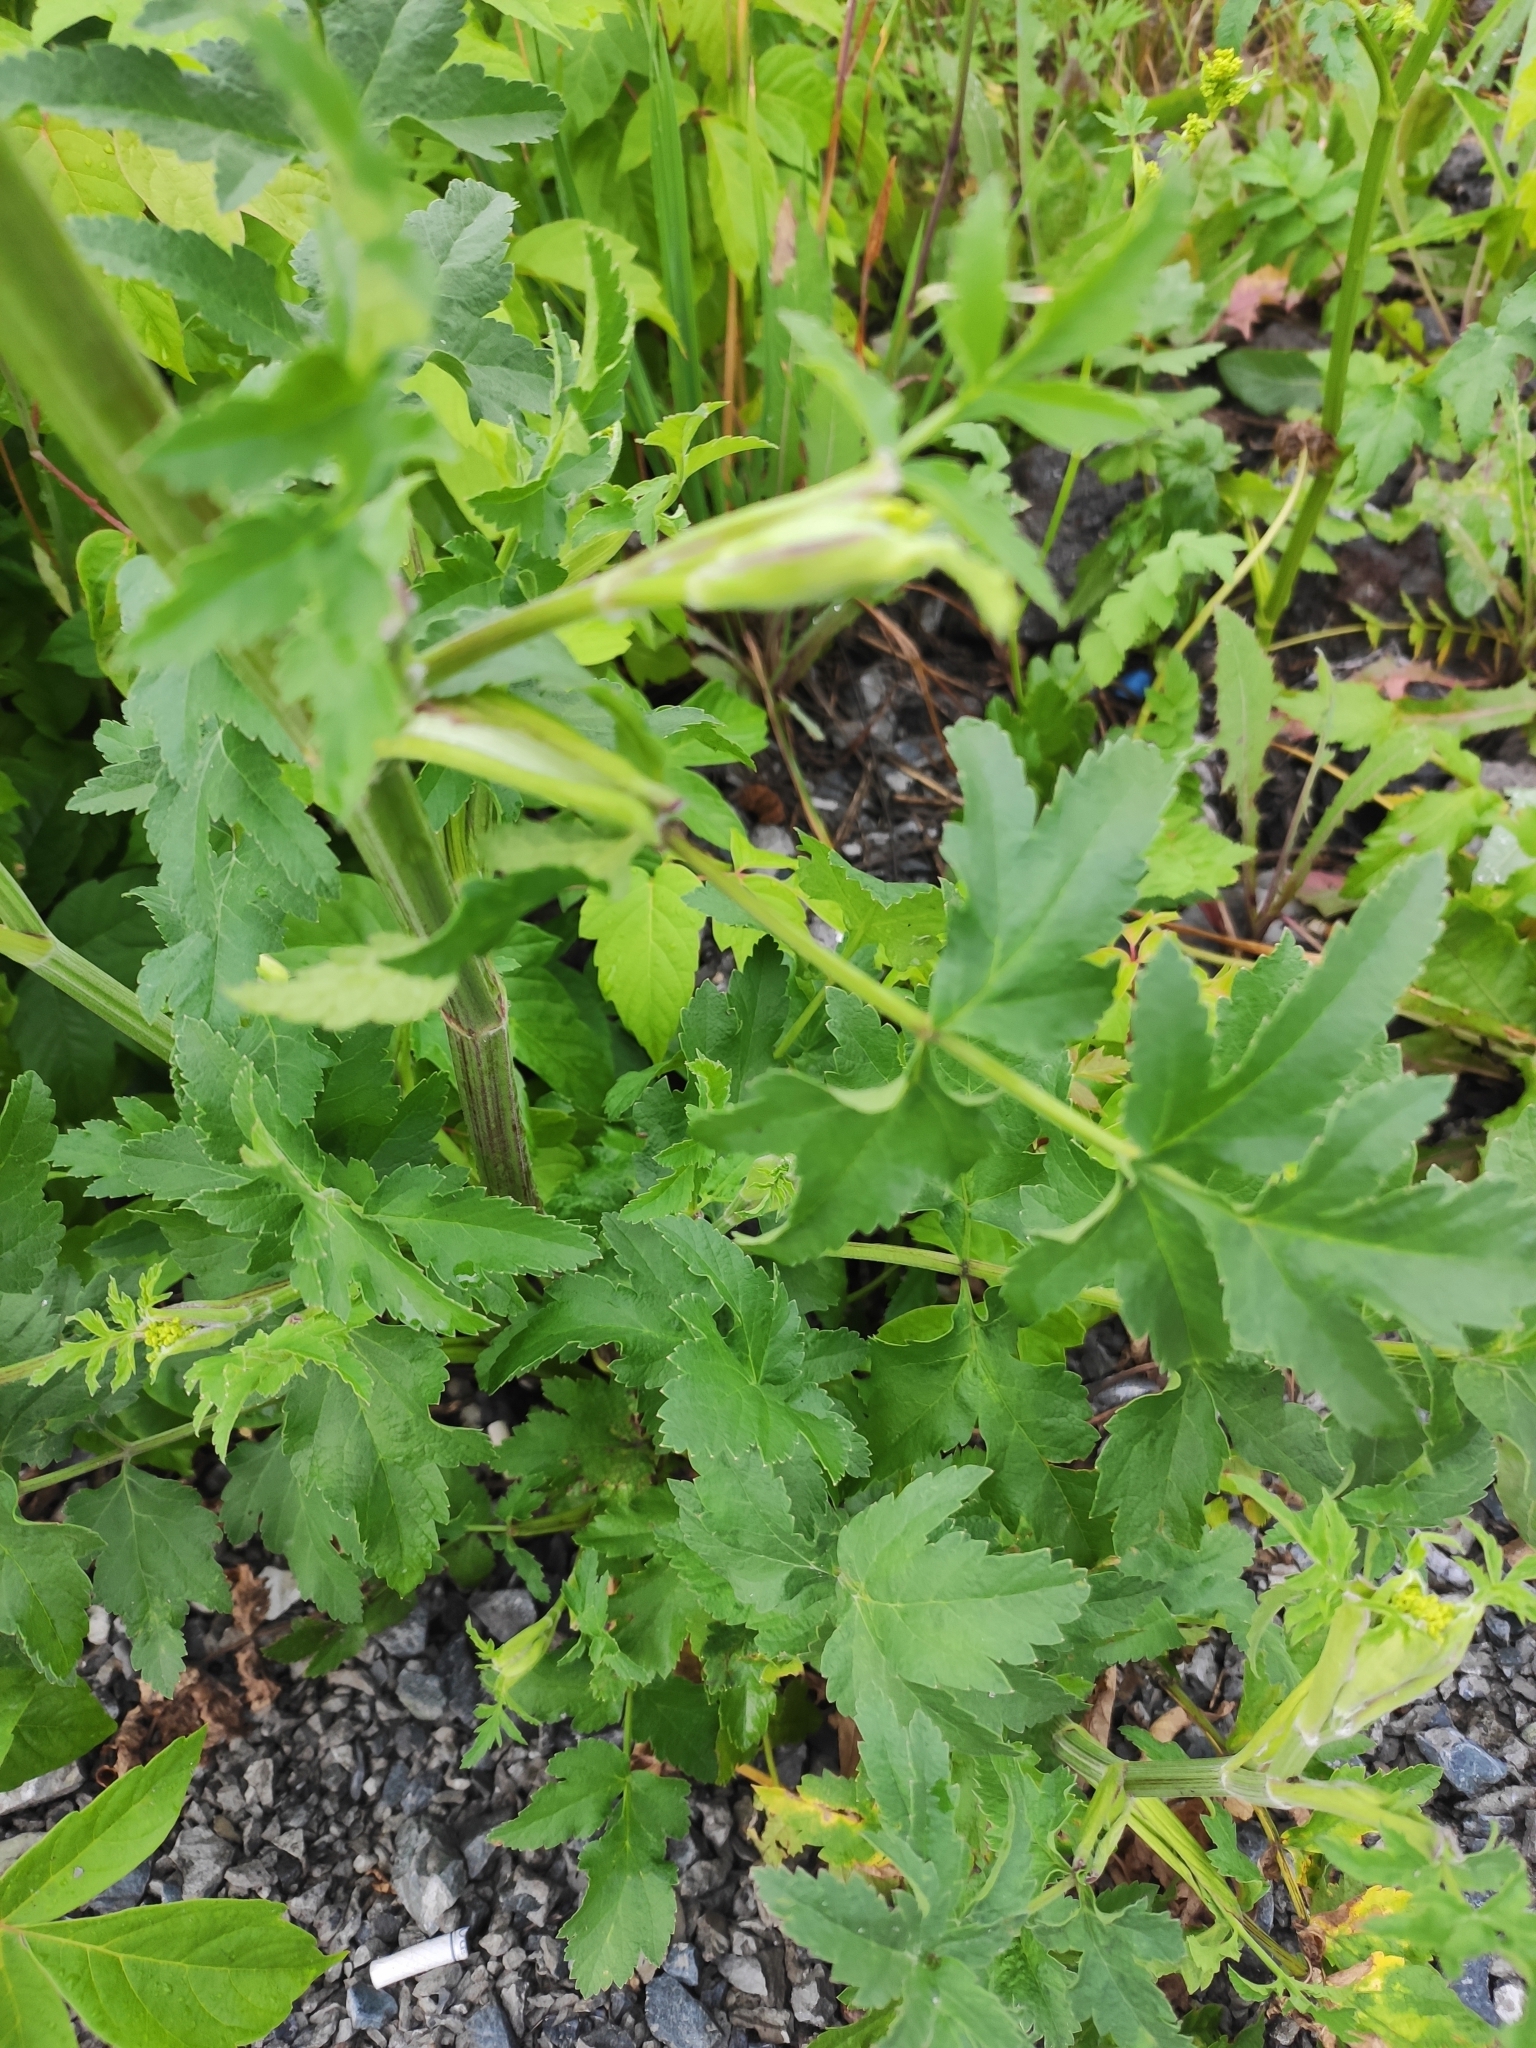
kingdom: Plantae
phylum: Tracheophyta
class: Magnoliopsida
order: Apiales
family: Apiaceae
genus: Pastinaca
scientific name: Pastinaca sativa
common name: Wild parsnip
